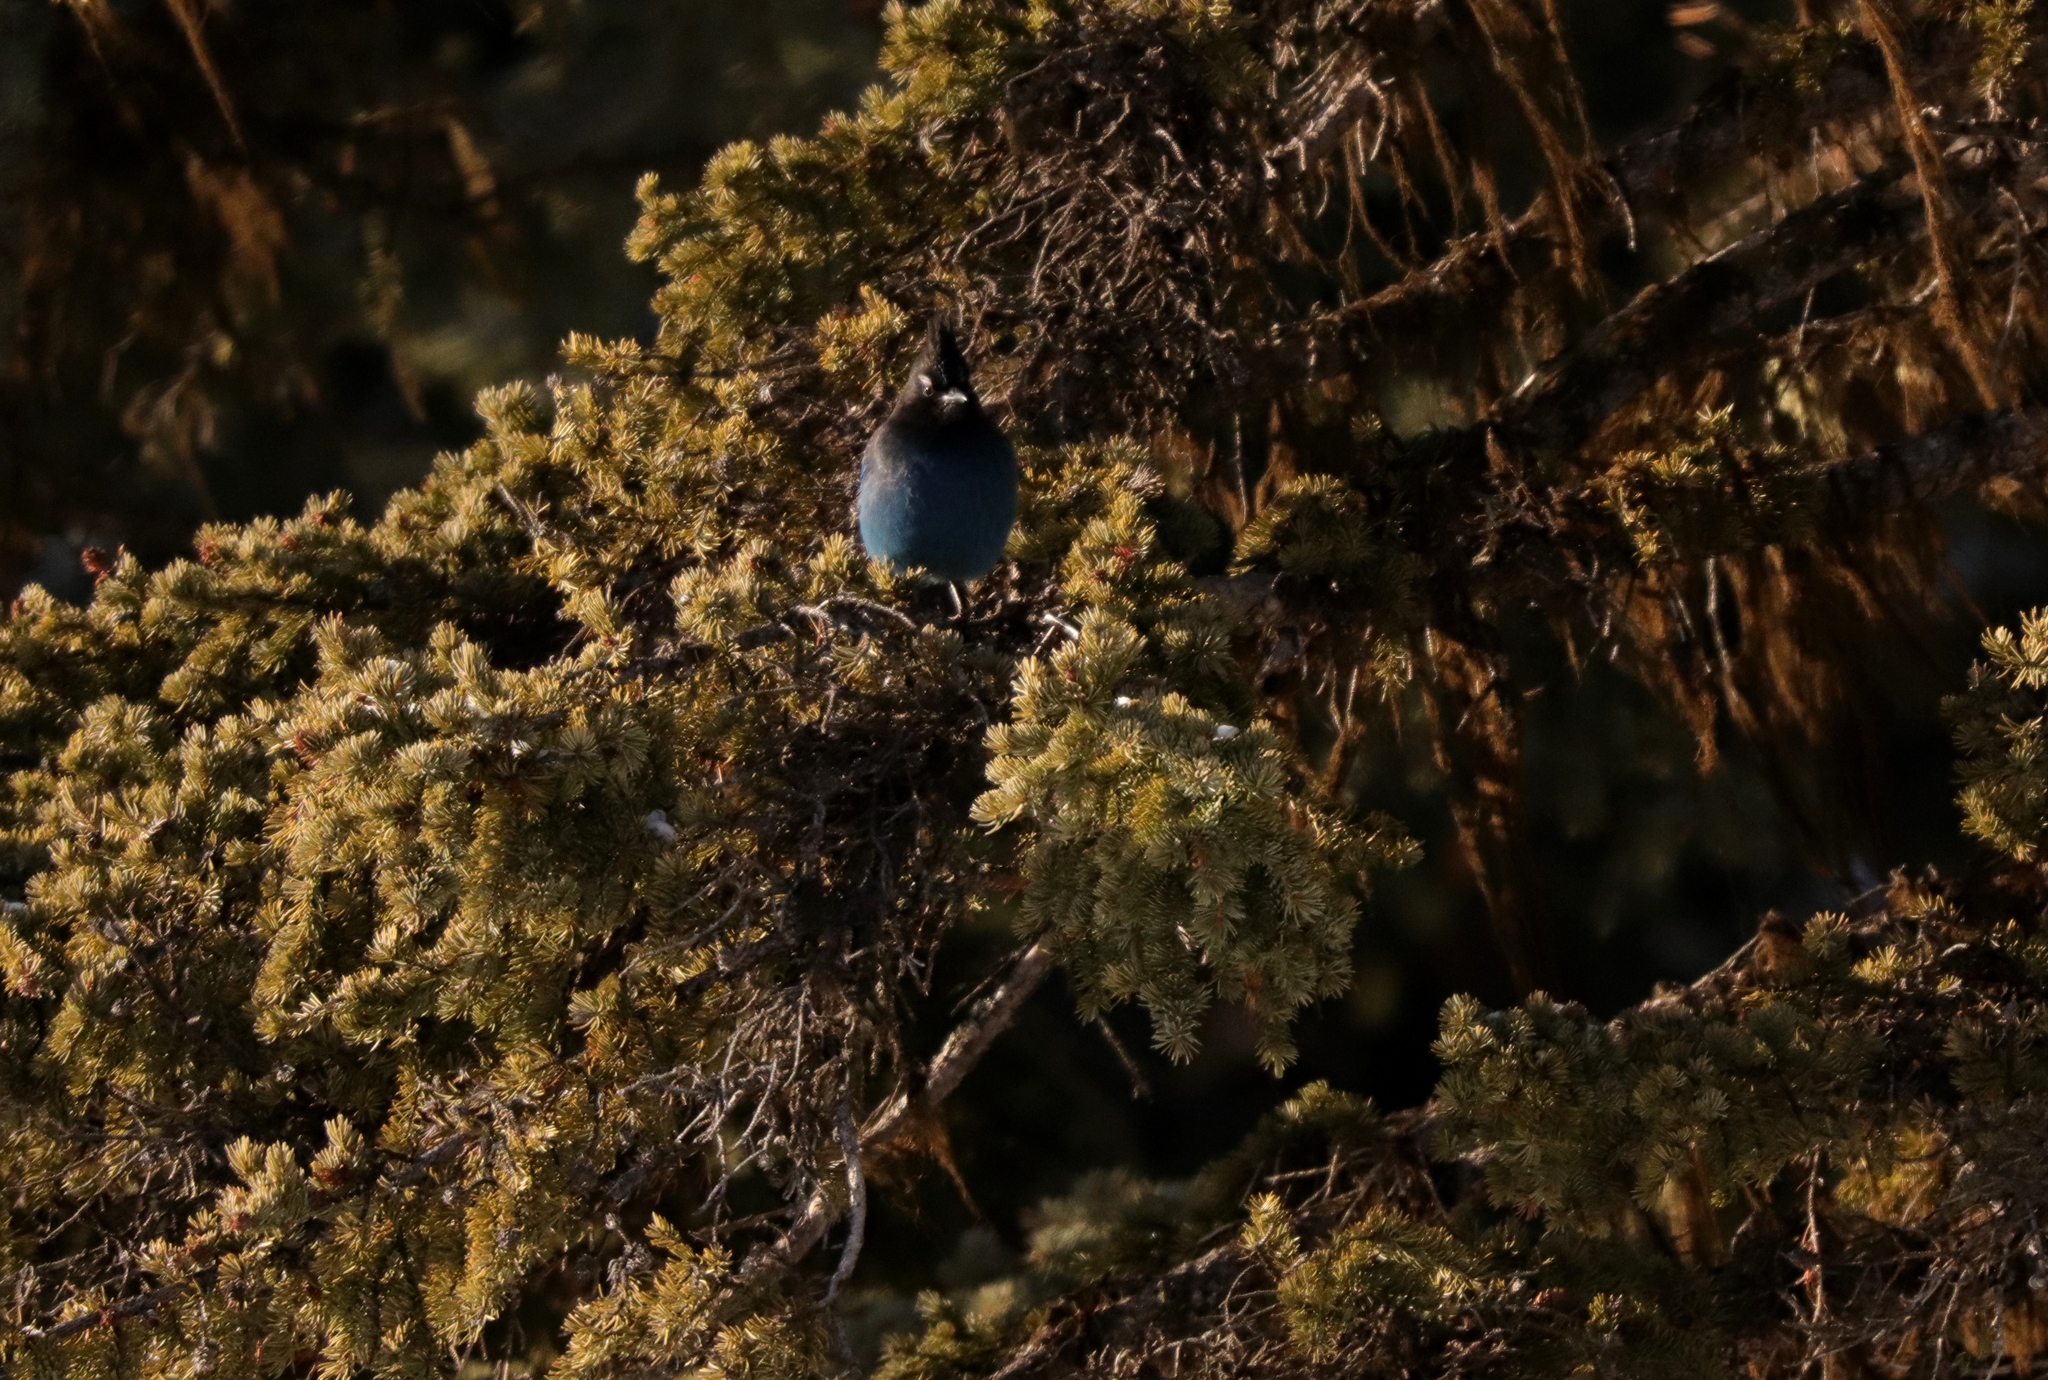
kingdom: Animalia
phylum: Chordata
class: Aves
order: Passeriformes
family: Corvidae
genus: Cyanocitta
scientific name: Cyanocitta stelleri
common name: Steller's jay
